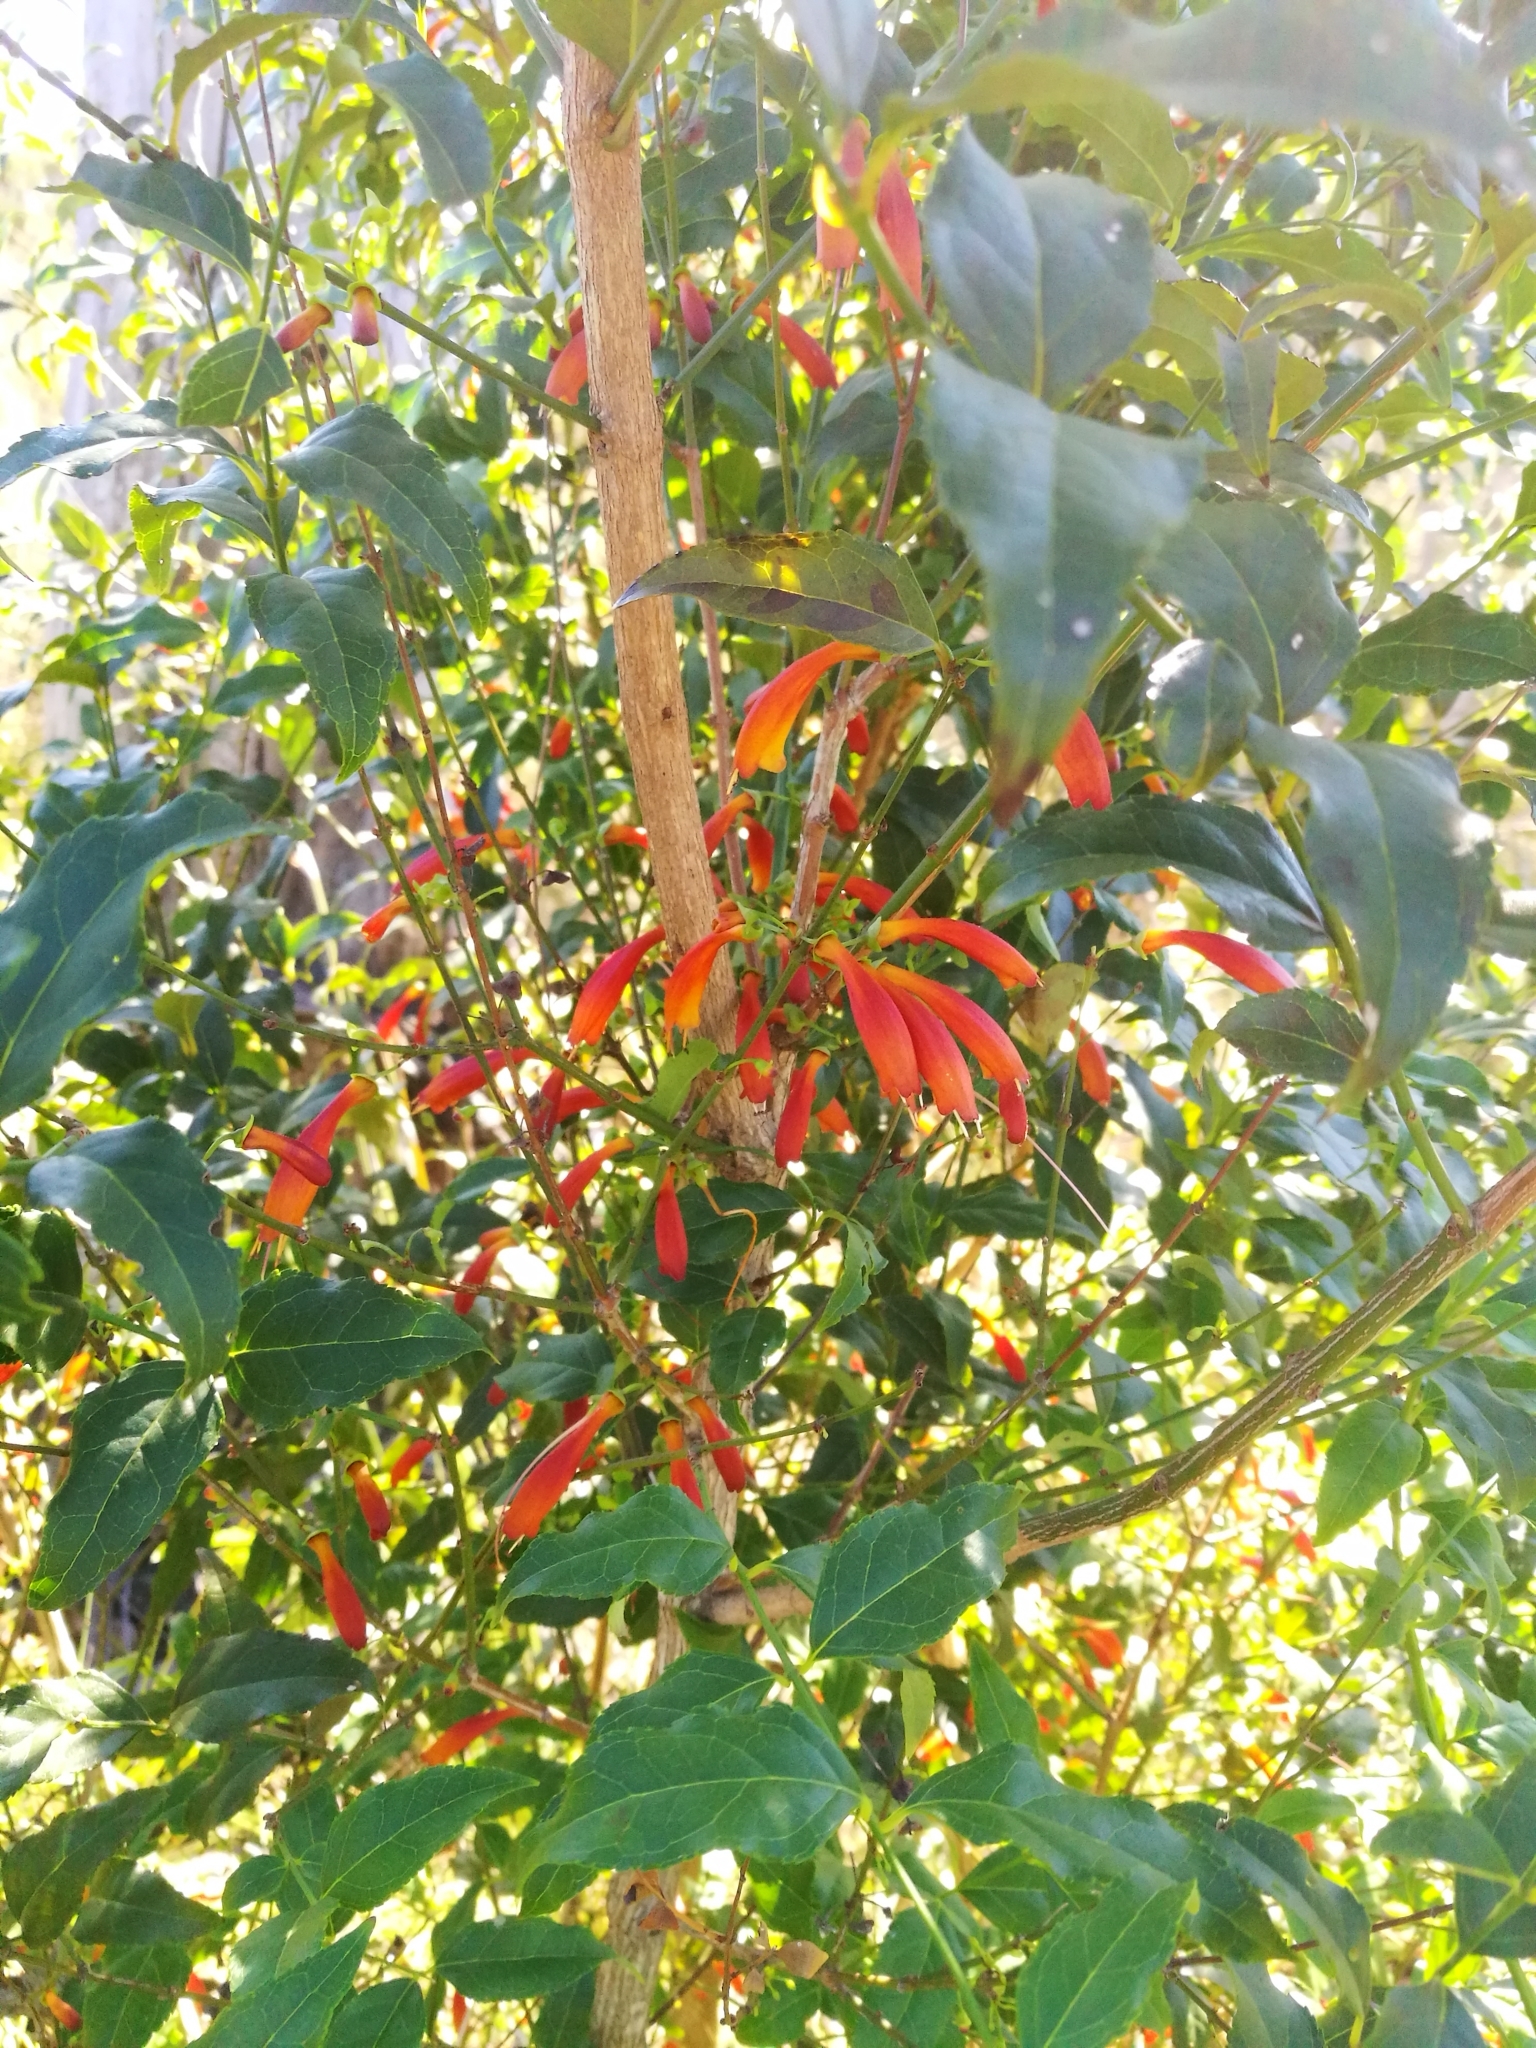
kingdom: Plantae
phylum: Tracheophyta
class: Magnoliopsida
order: Lamiales
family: Stilbaceae
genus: Halleria
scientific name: Halleria lucida
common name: Tree fuschia
